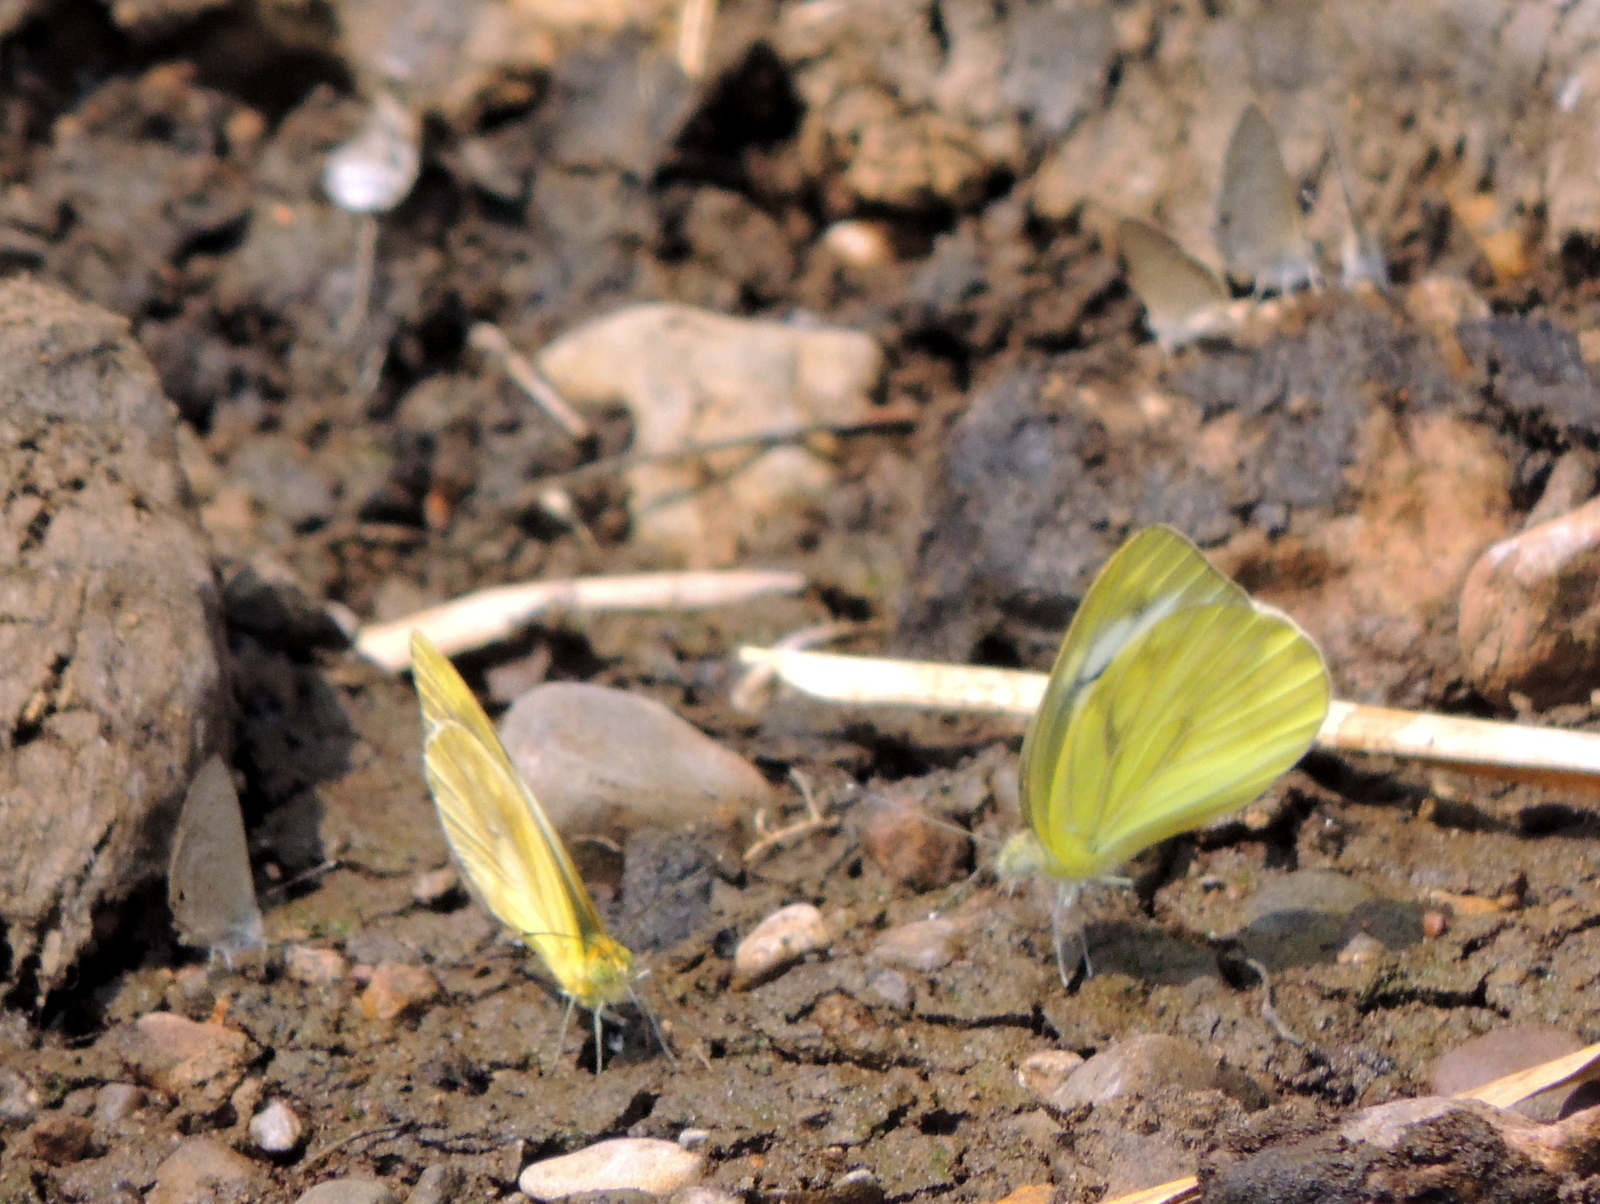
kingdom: Animalia
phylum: Arthropoda
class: Insecta
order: Lepidoptera
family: Pieridae
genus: Cepora
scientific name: Cepora nerissa
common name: Common gull
